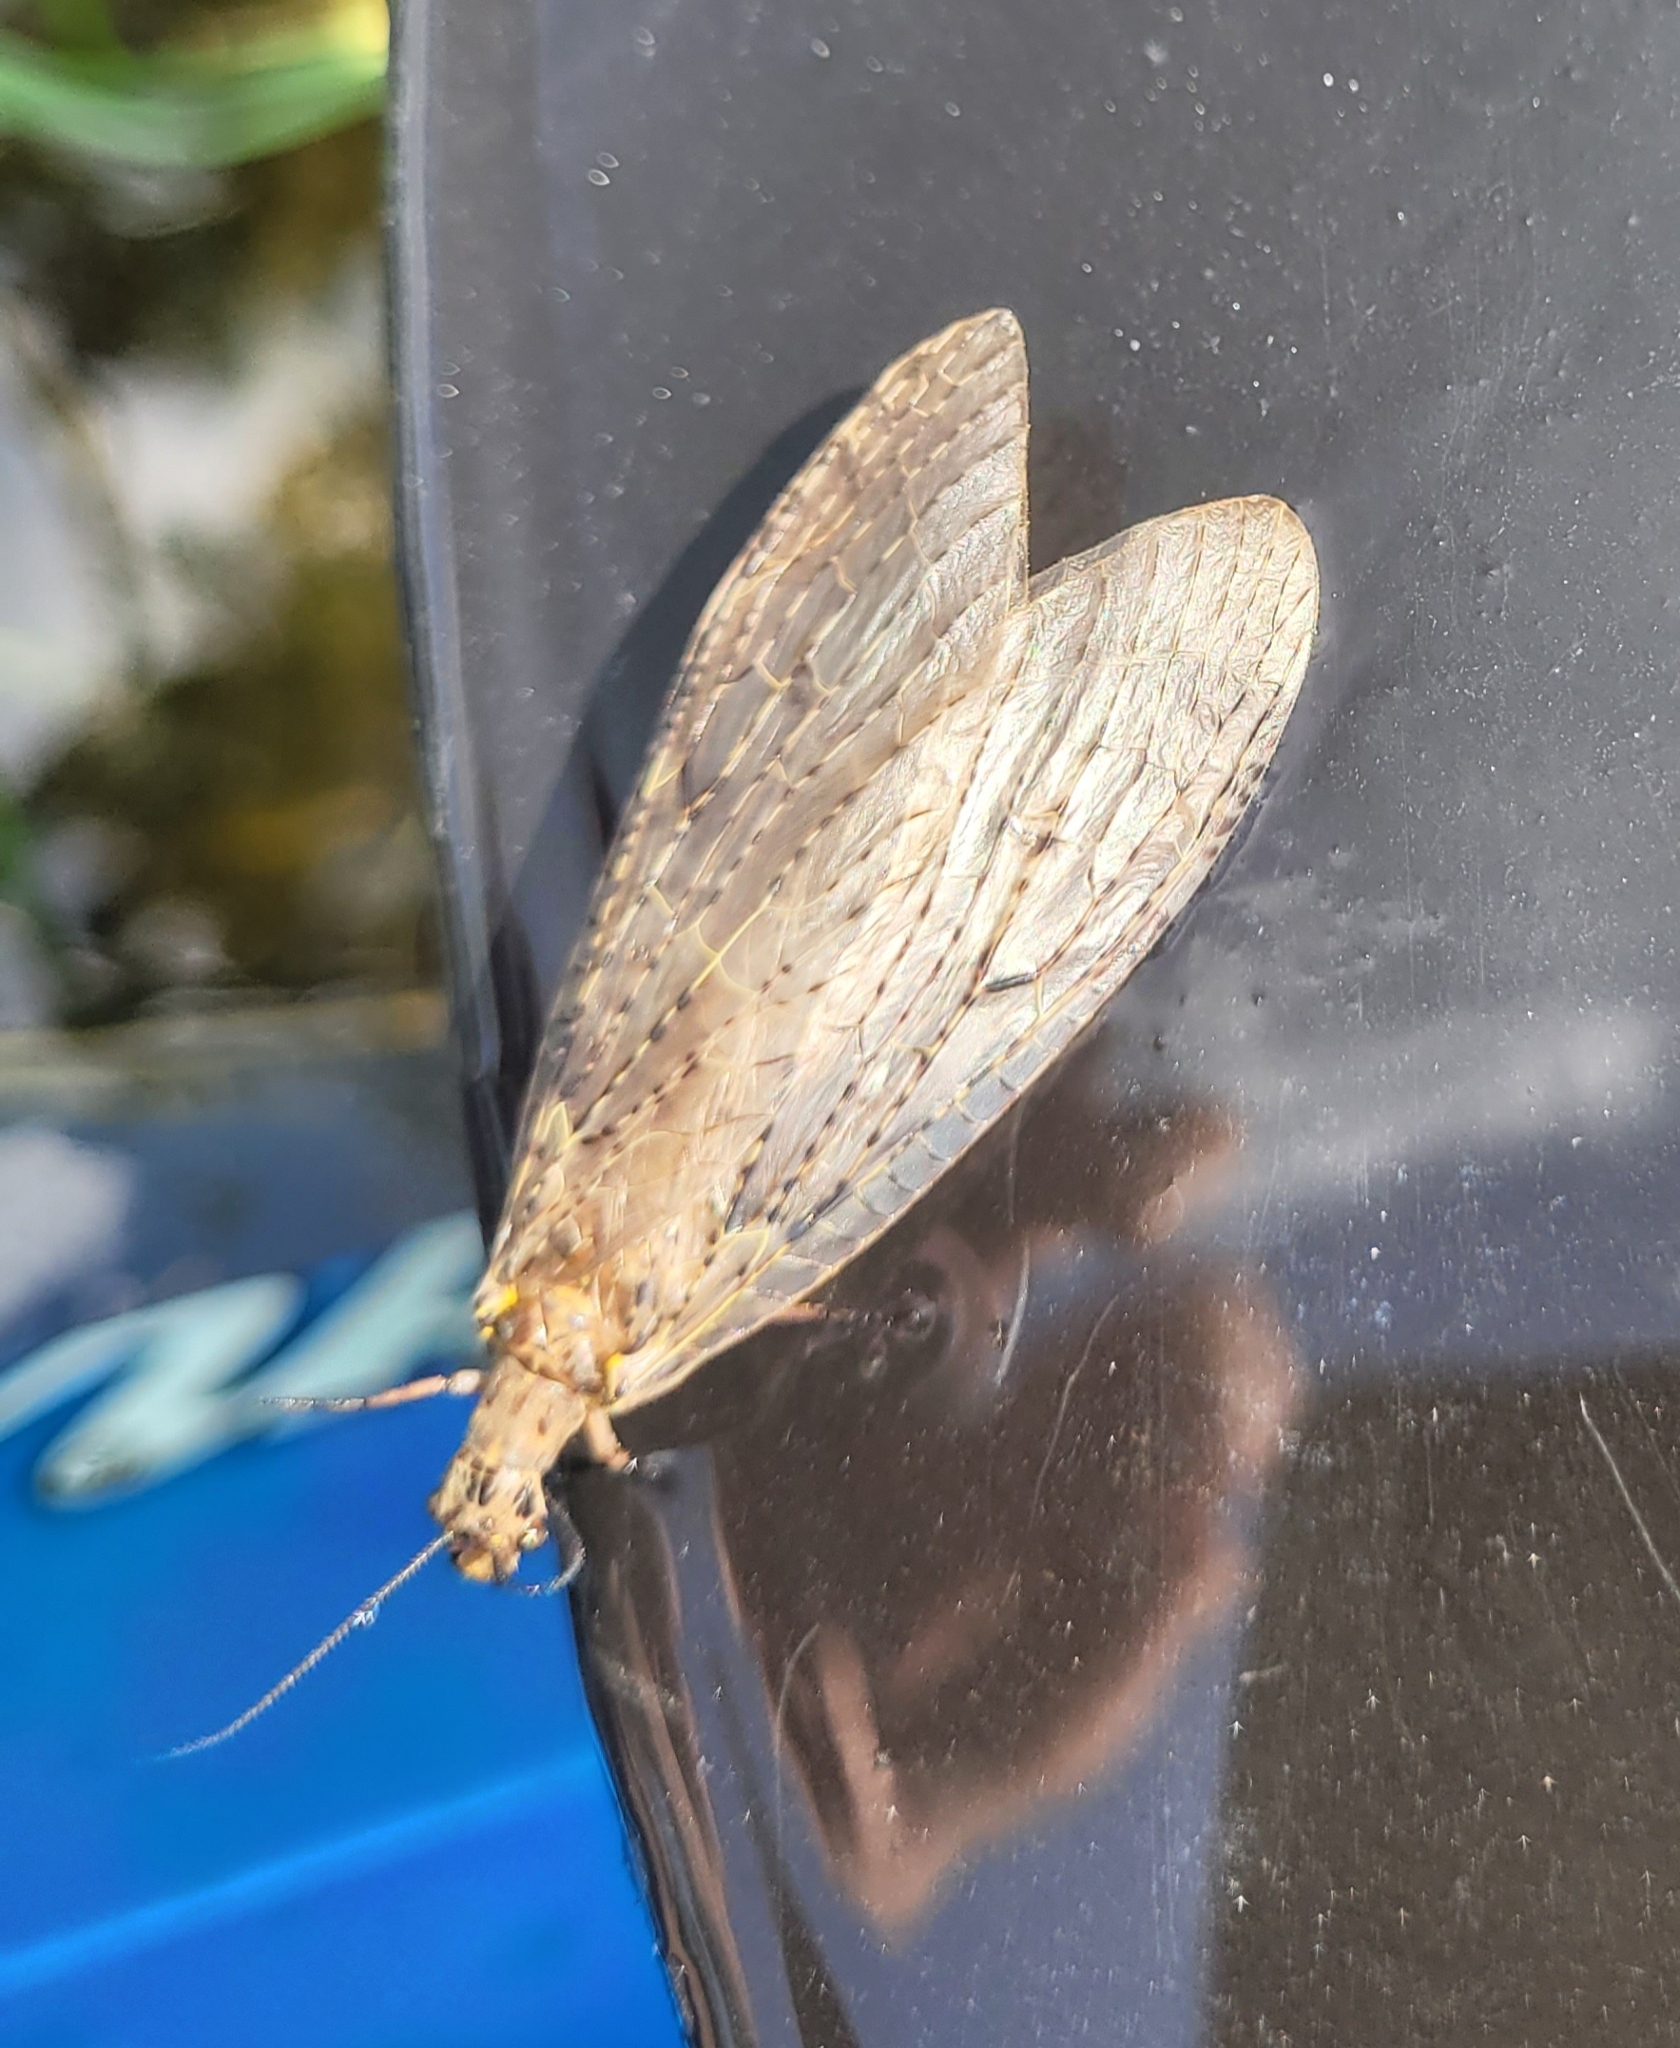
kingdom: Animalia
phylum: Arthropoda
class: Insecta
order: Megaloptera
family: Corydalidae
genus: Chauliodes
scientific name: Chauliodes rastricornis
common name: Spring fishfly
